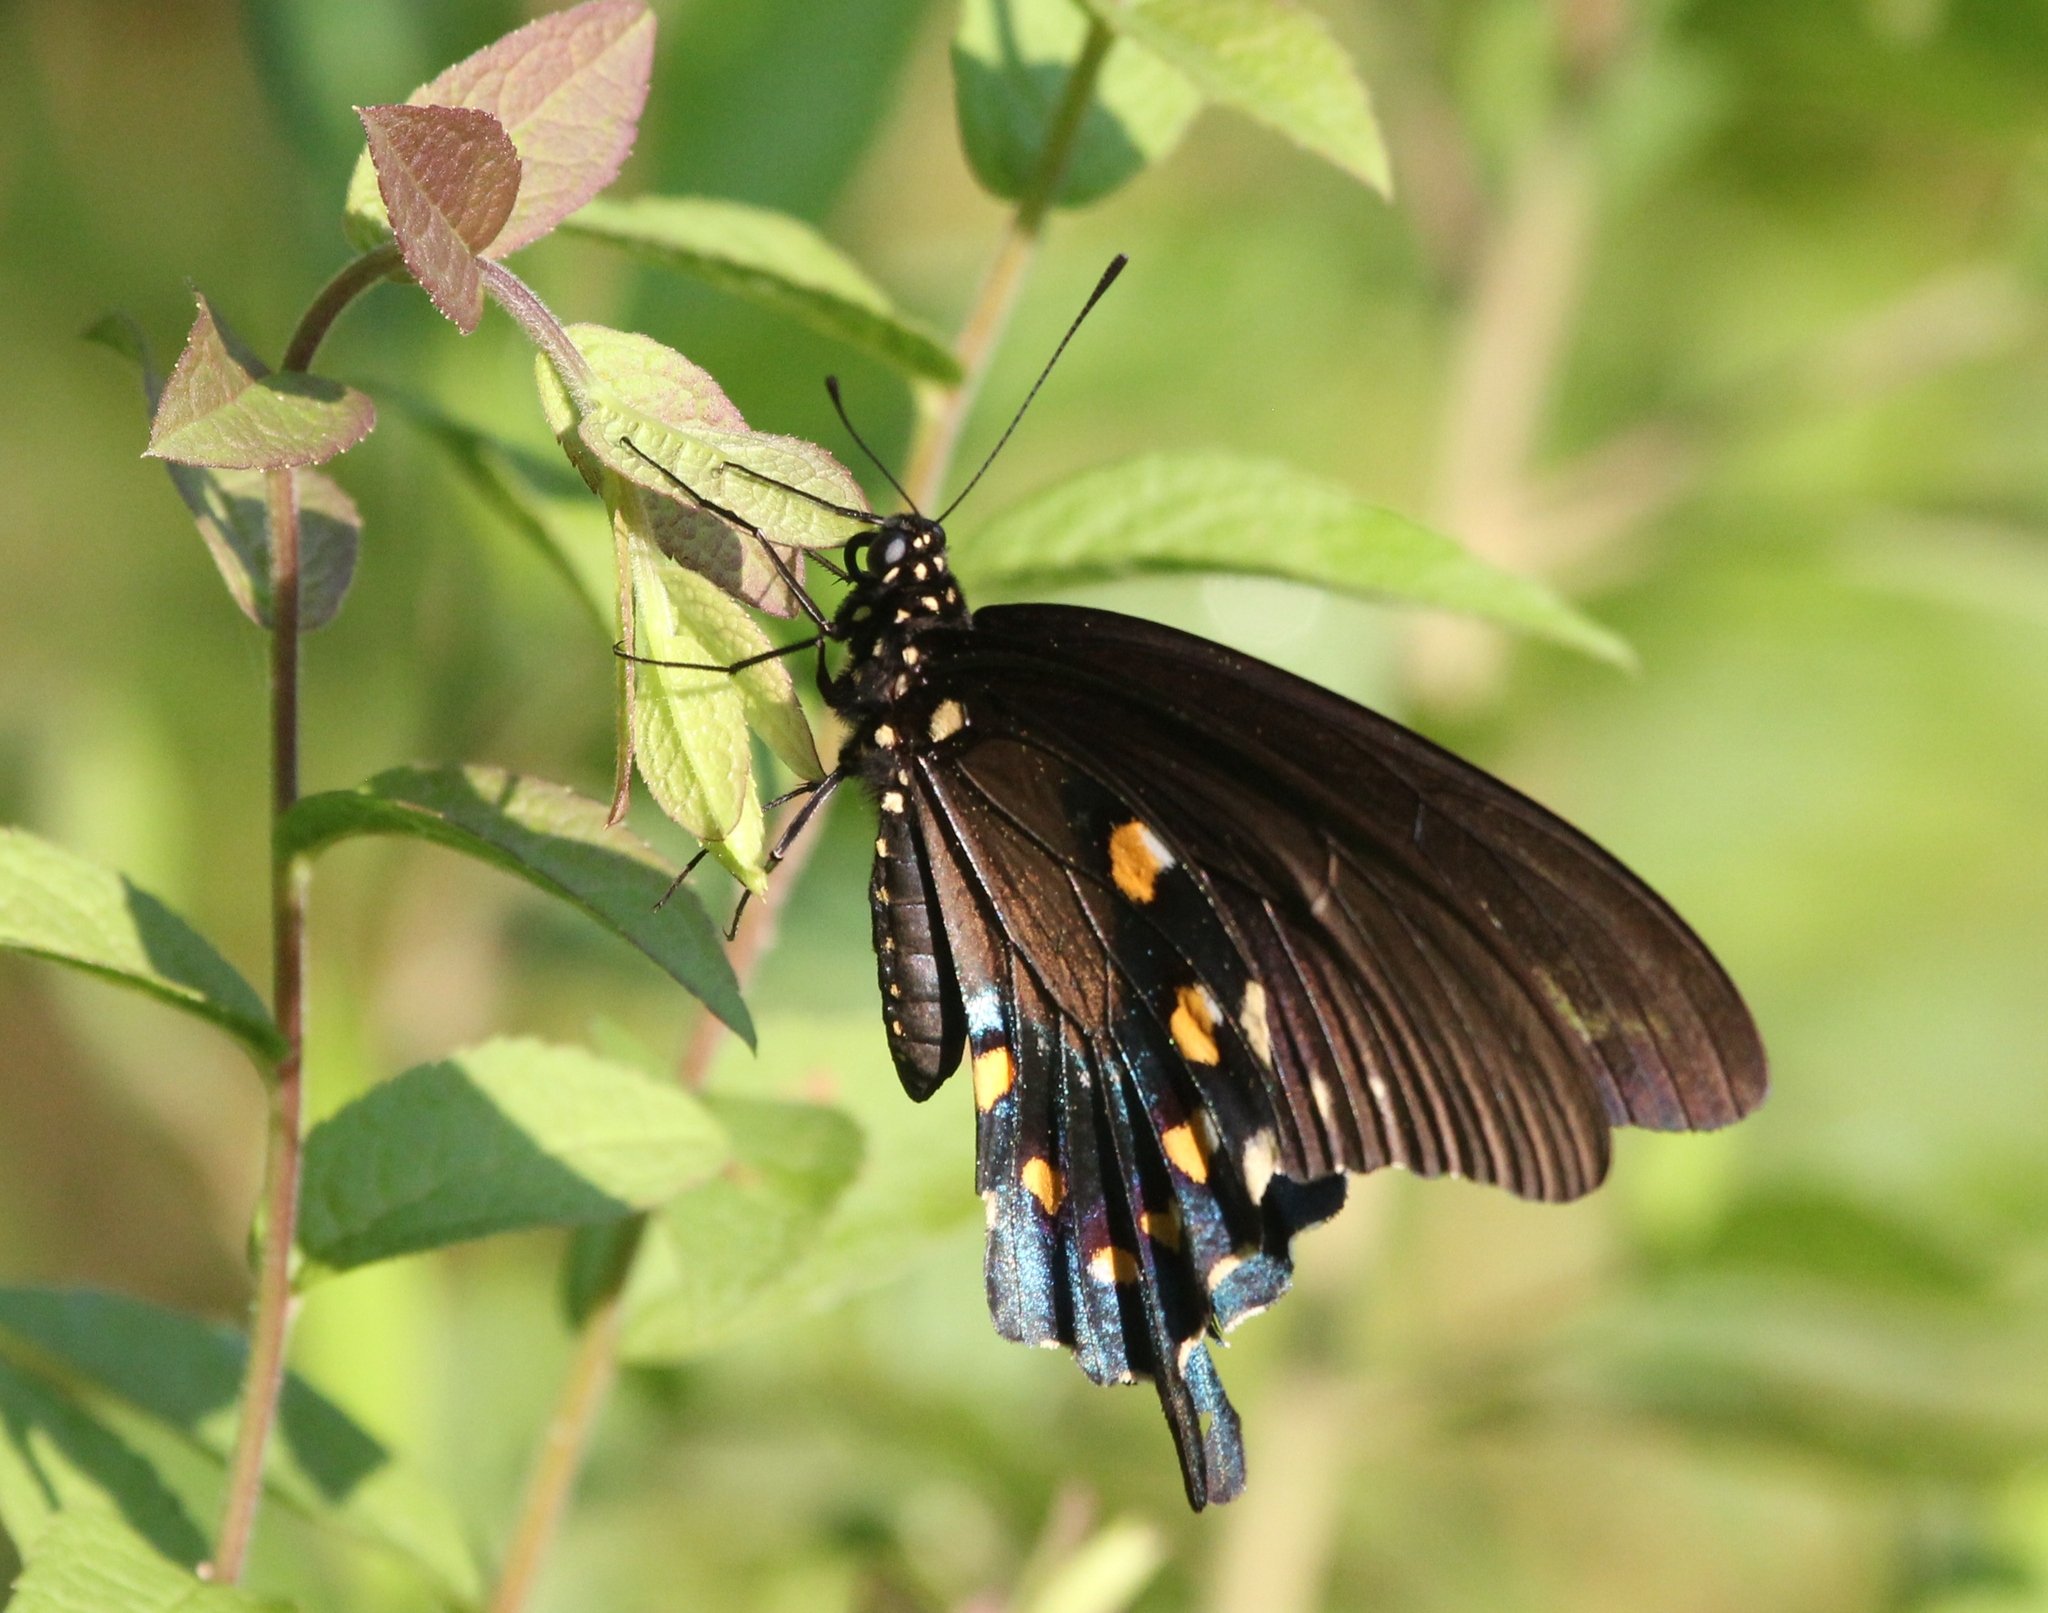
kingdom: Animalia
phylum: Arthropoda
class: Insecta
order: Lepidoptera
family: Papilionidae
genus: Battus
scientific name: Battus philenor
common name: Pipevine swallowtail
